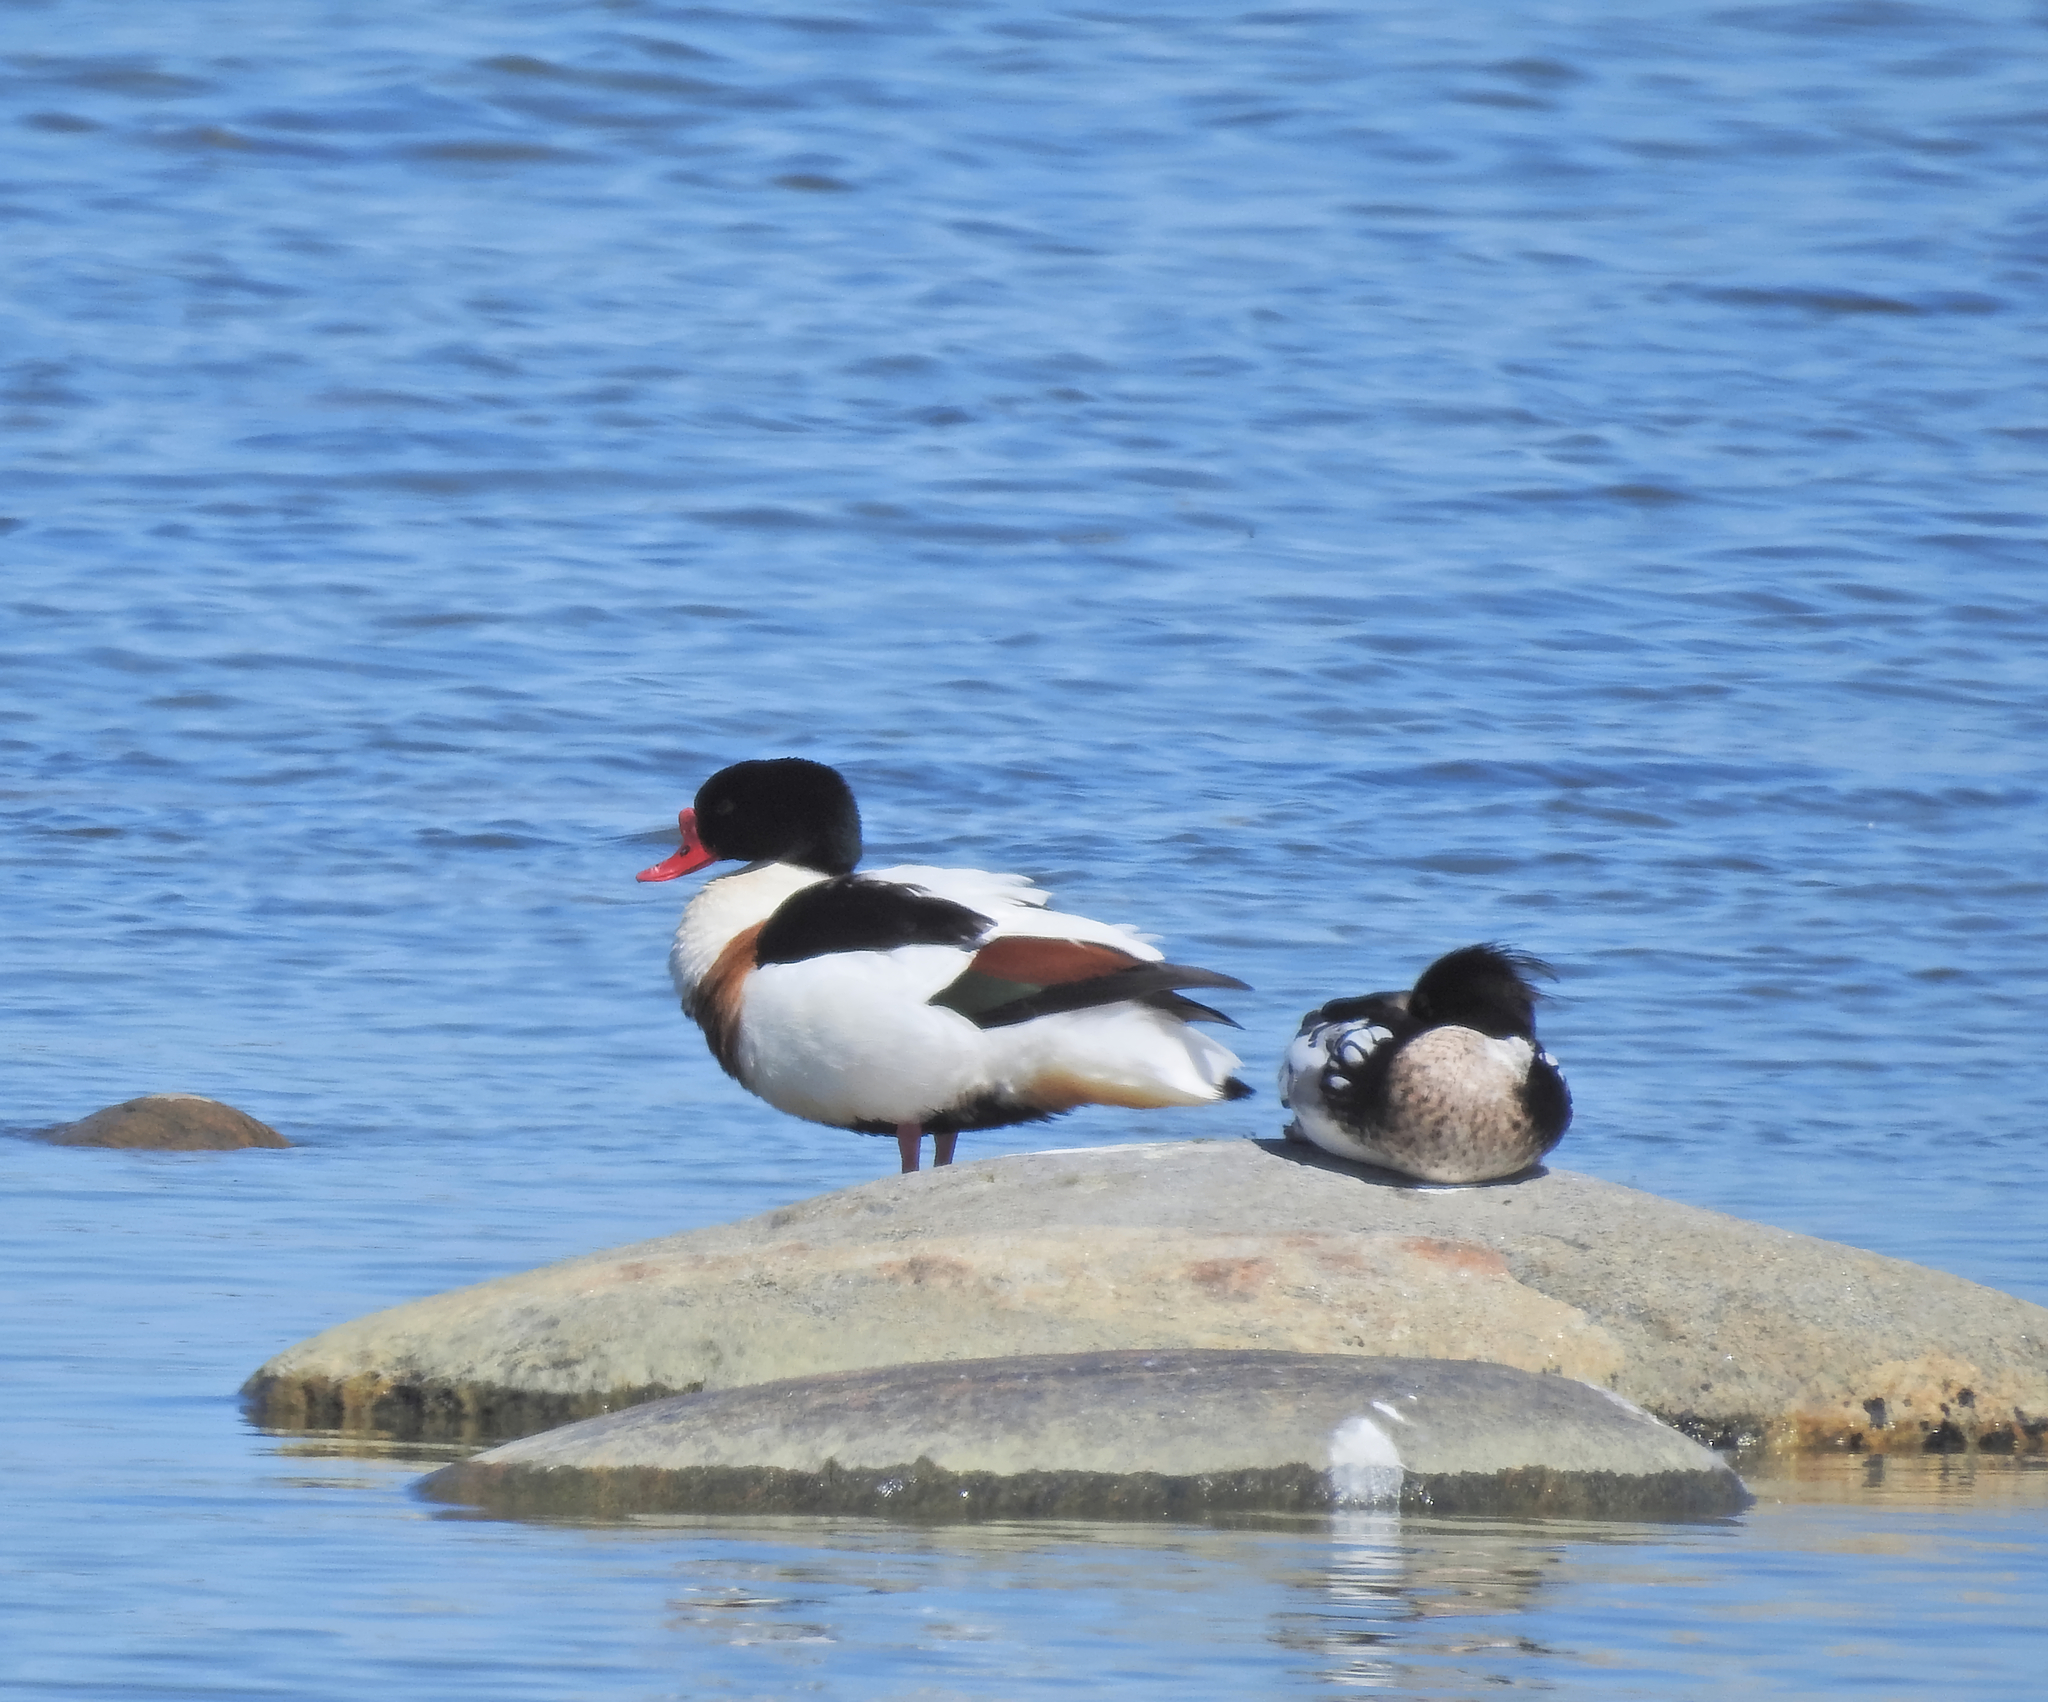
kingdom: Animalia
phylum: Chordata
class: Aves
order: Anseriformes
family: Anatidae
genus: Tadorna
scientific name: Tadorna tadorna
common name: Common shelduck
